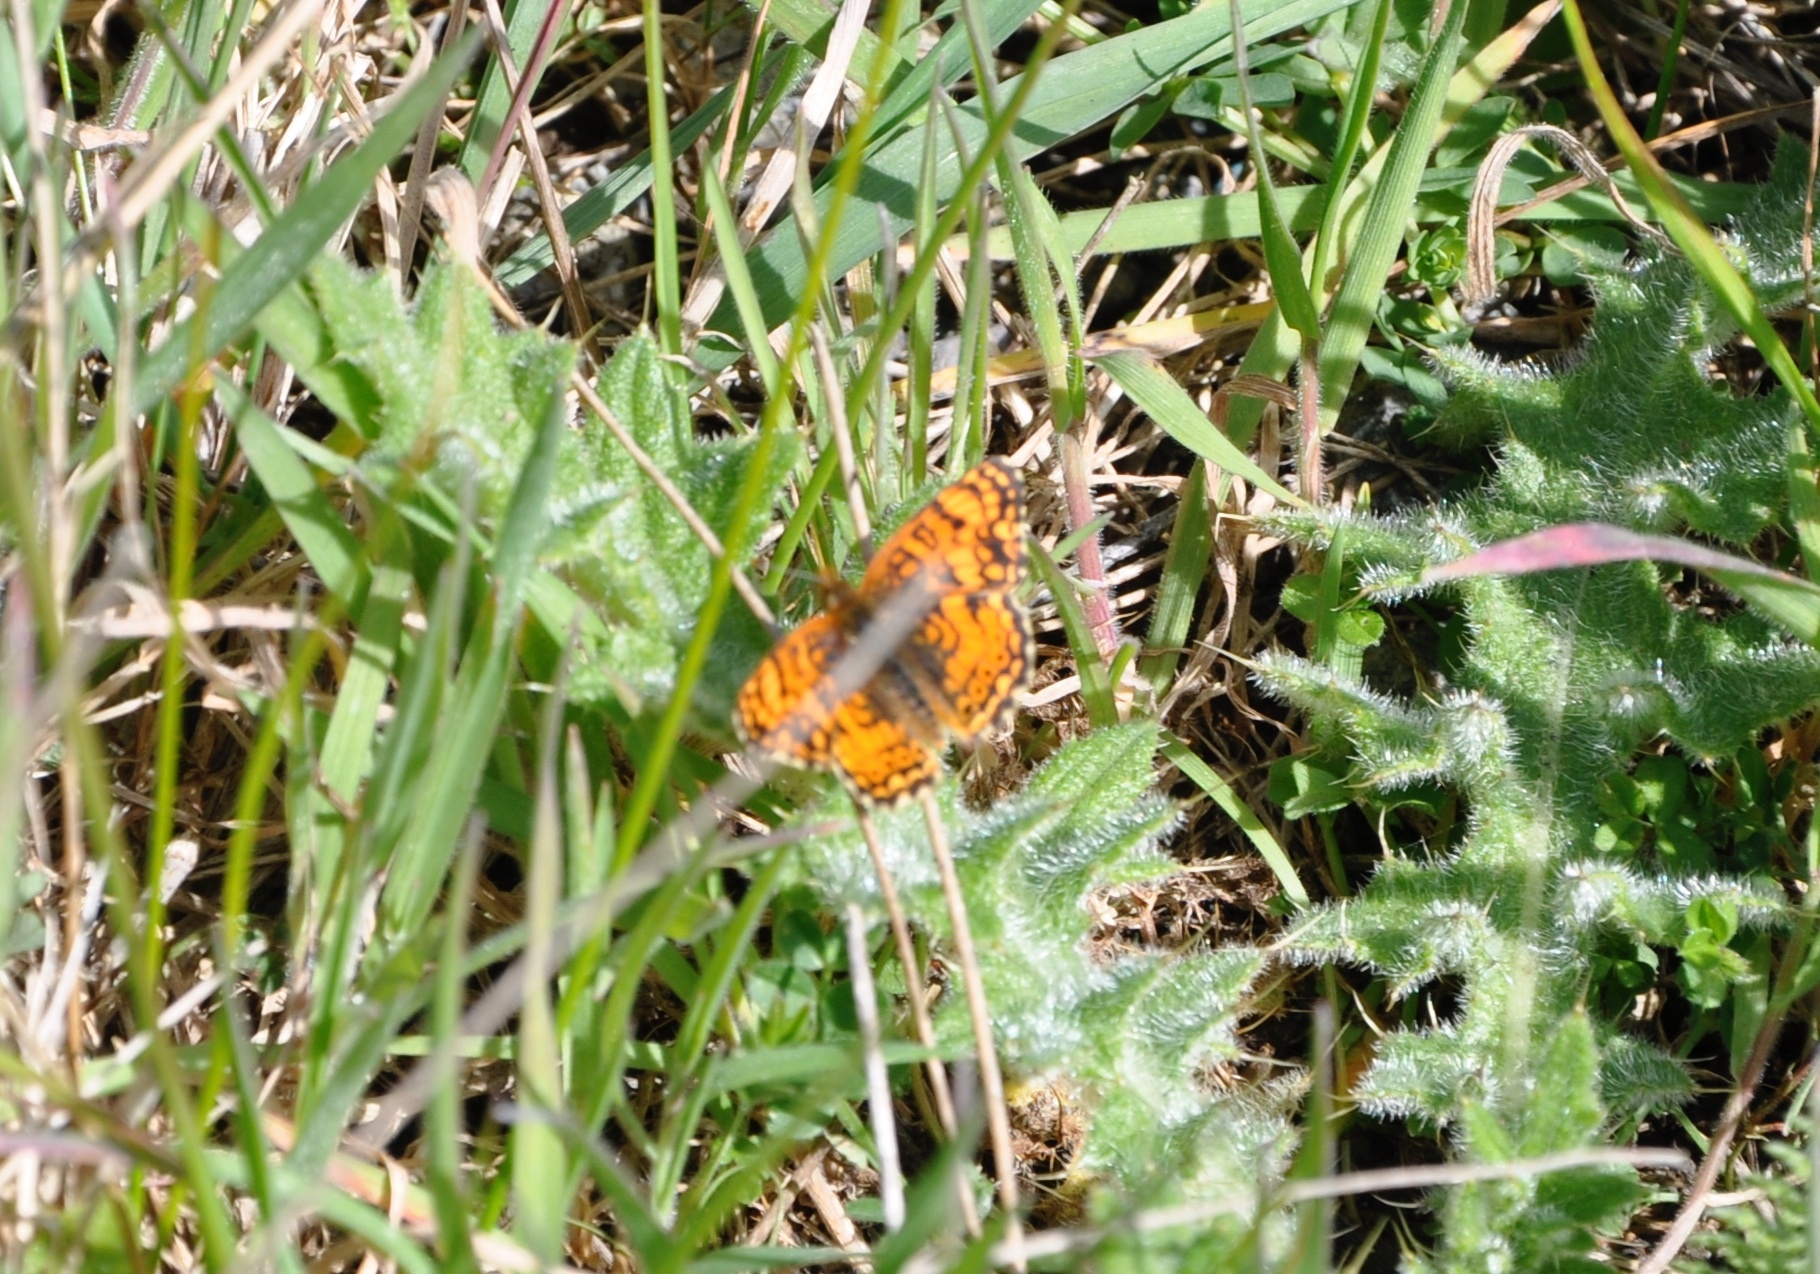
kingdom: Animalia
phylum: Arthropoda
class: Insecta
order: Lepidoptera
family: Nymphalidae
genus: Eresia
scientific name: Eresia aveyrona
